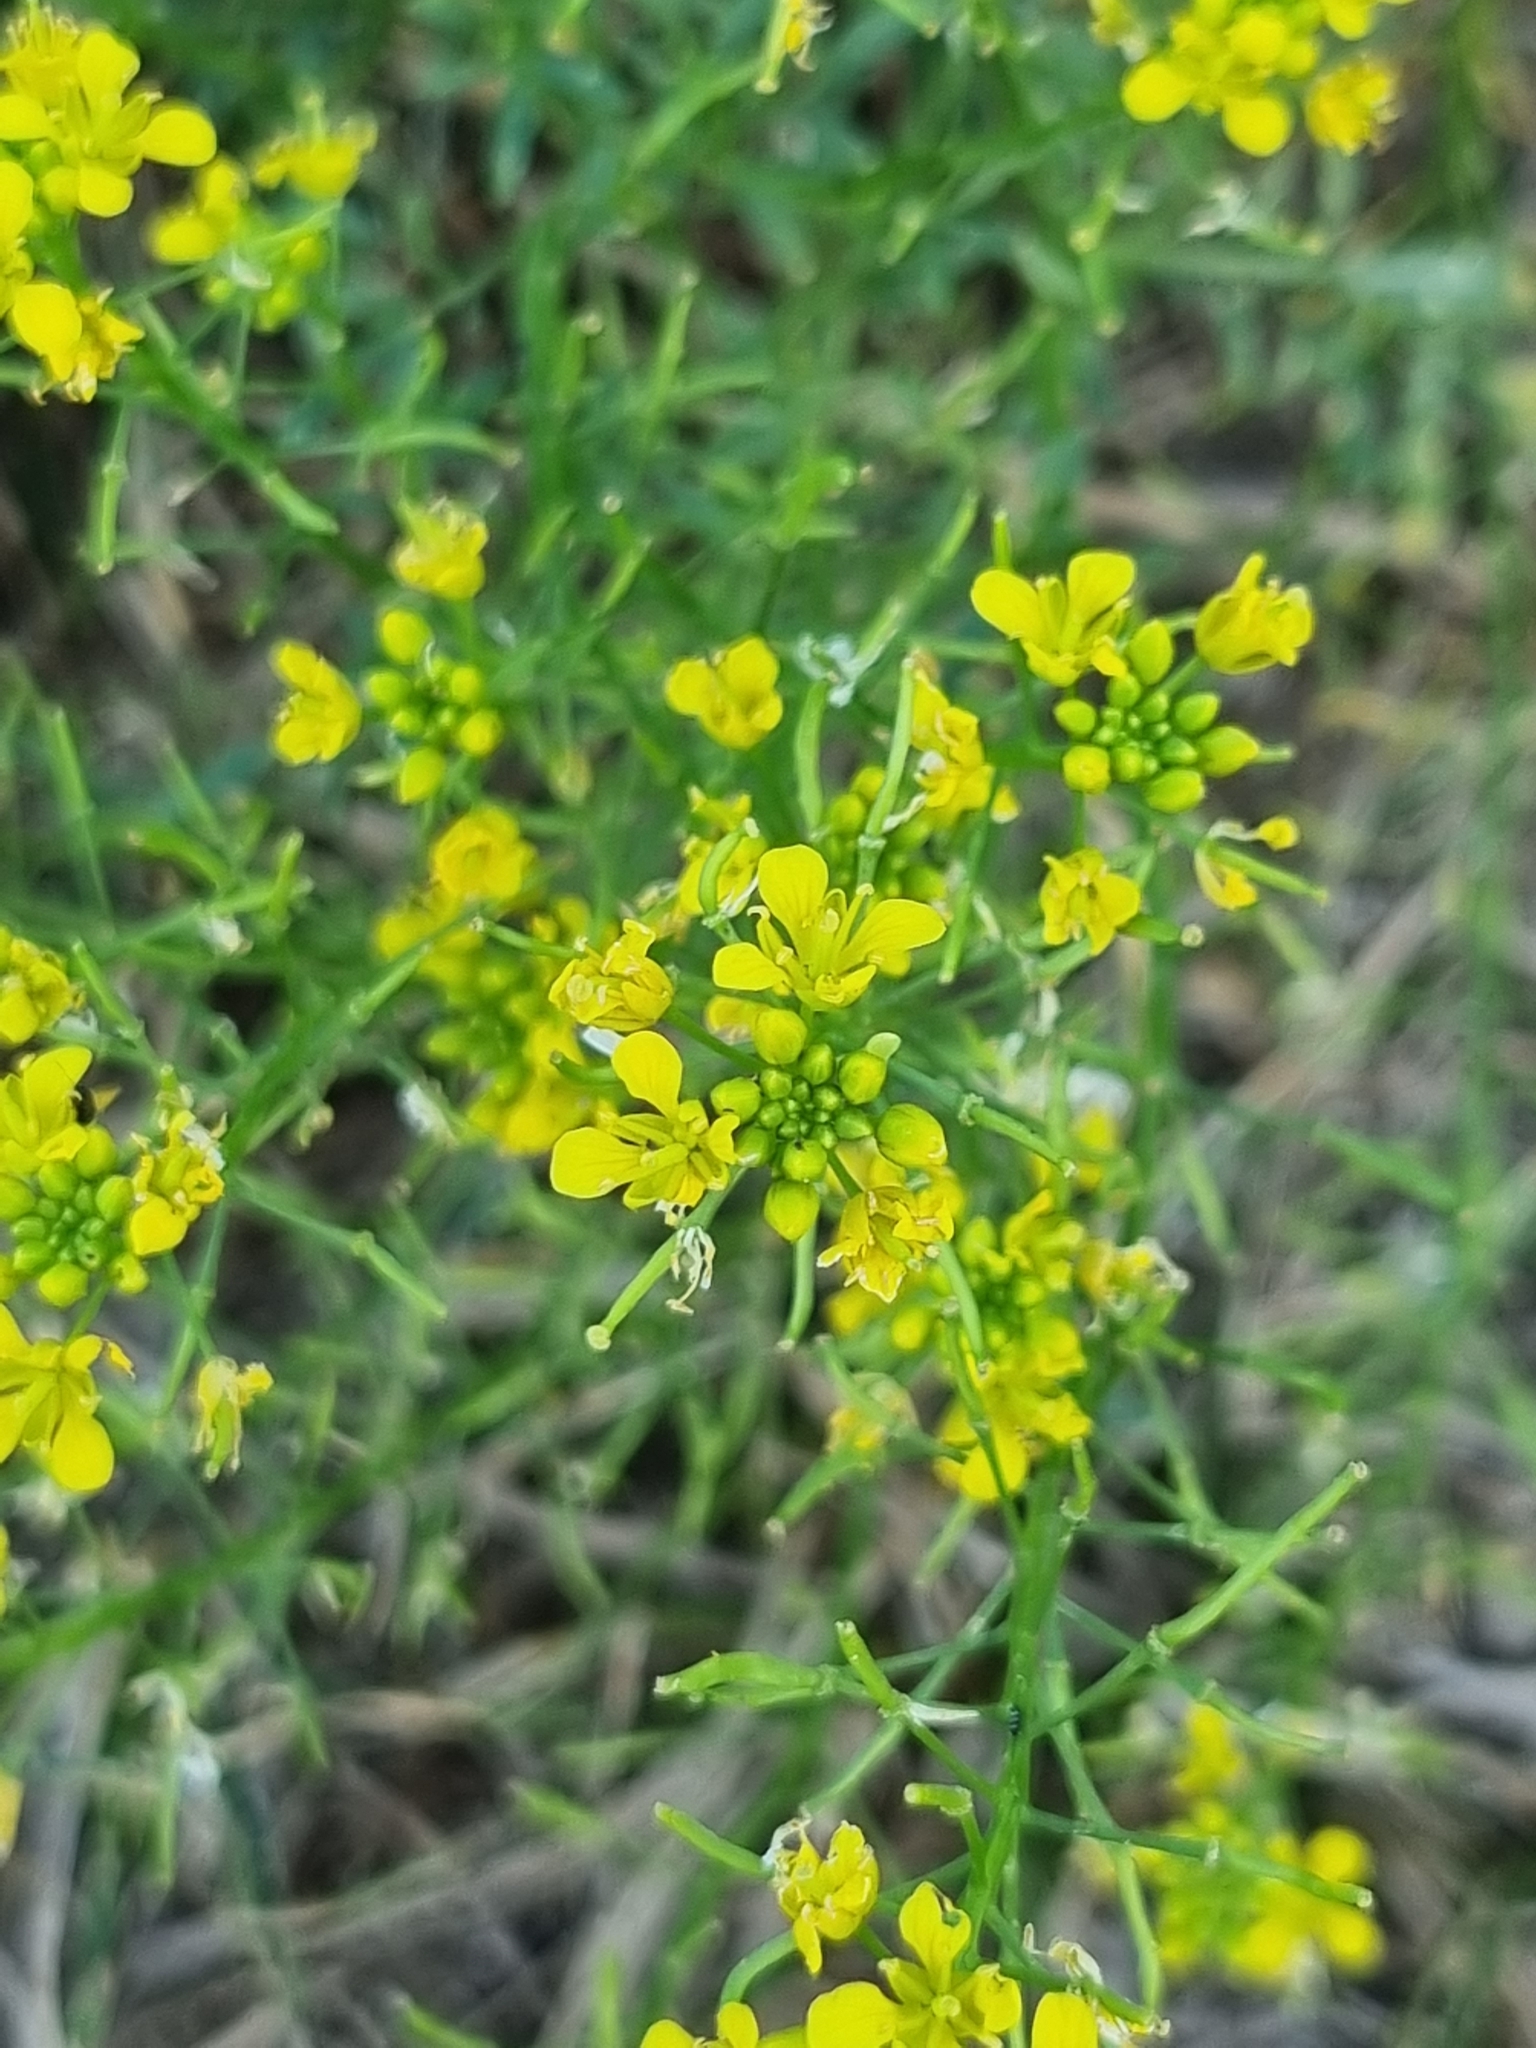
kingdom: Plantae
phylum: Tracheophyta
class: Magnoliopsida
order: Brassicales
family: Brassicaceae
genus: Rorippa
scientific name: Rorippa sylvestris
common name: Creeping yellowcress
